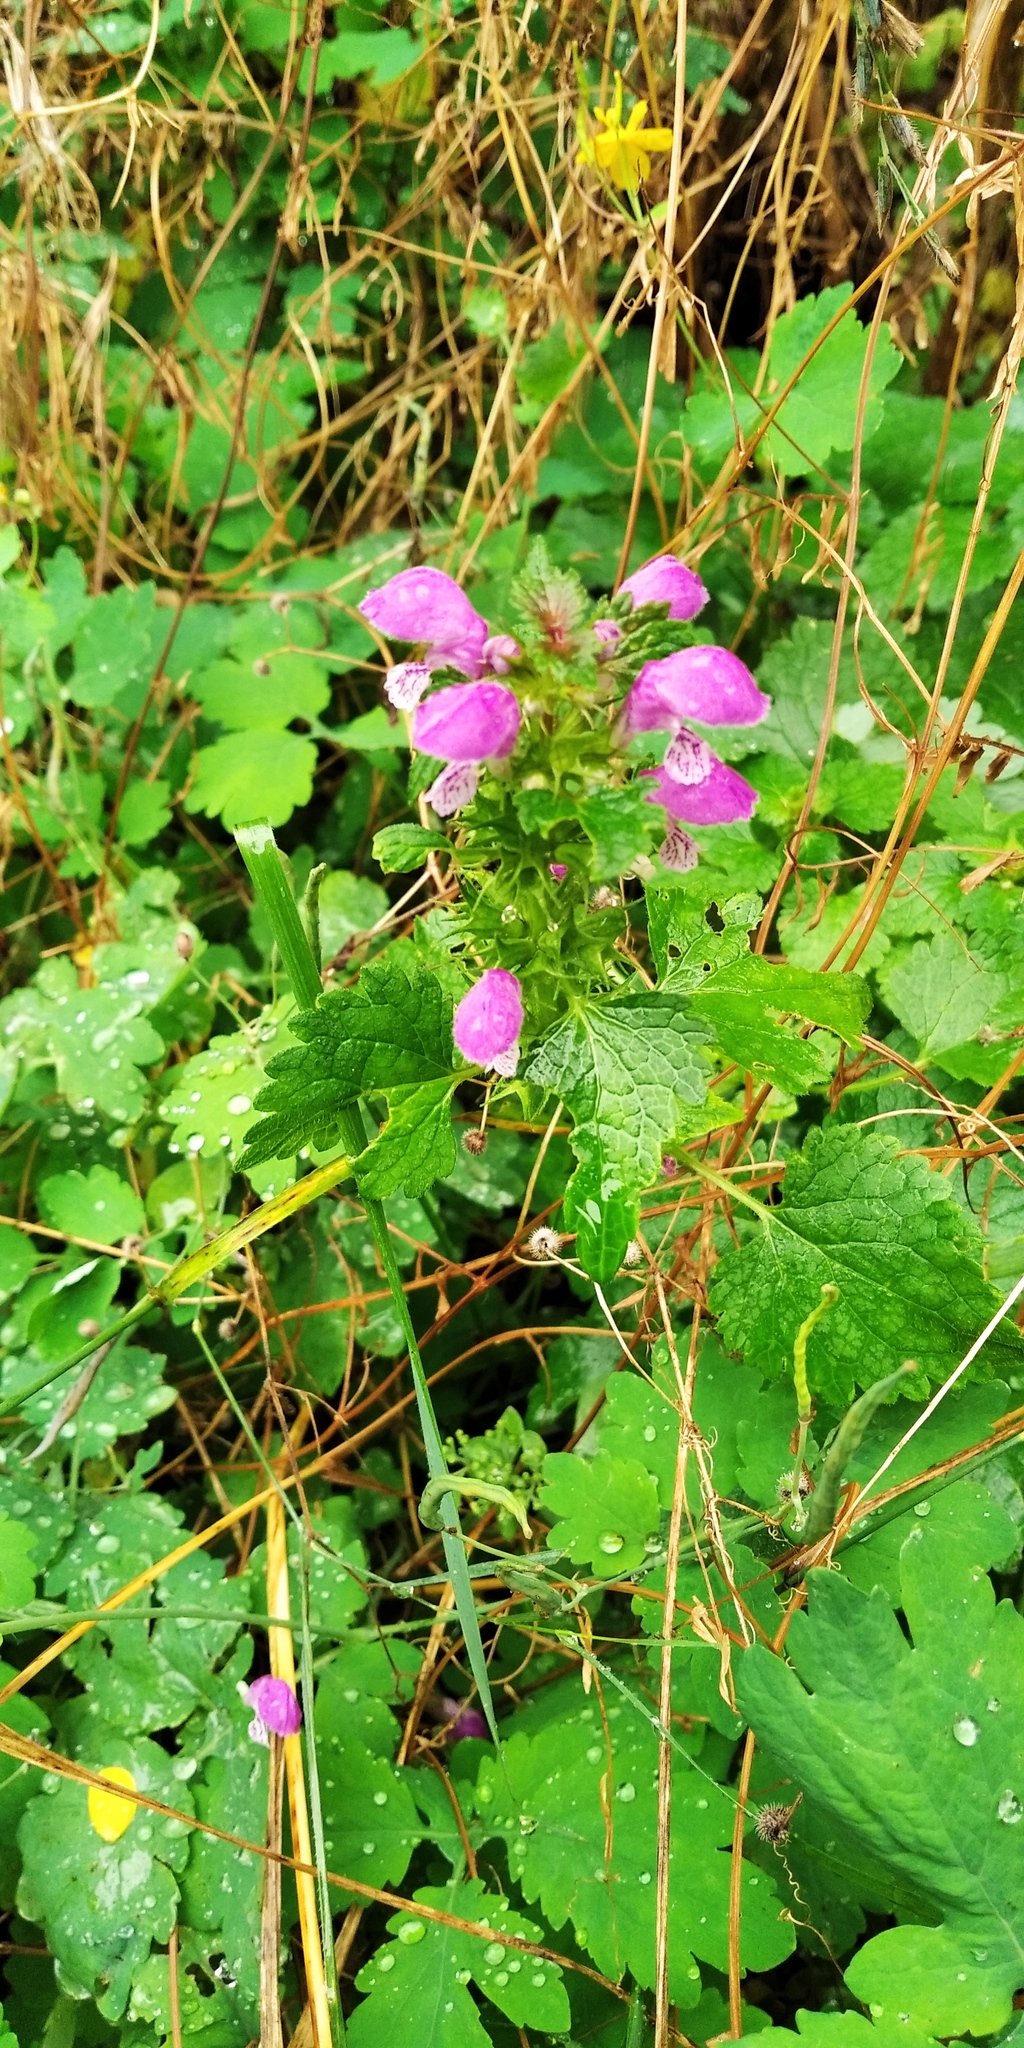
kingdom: Plantae
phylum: Tracheophyta
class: Magnoliopsida
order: Lamiales
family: Lamiaceae
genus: Lamium
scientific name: Lamium maculatum
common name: Spotted dead-nettle
